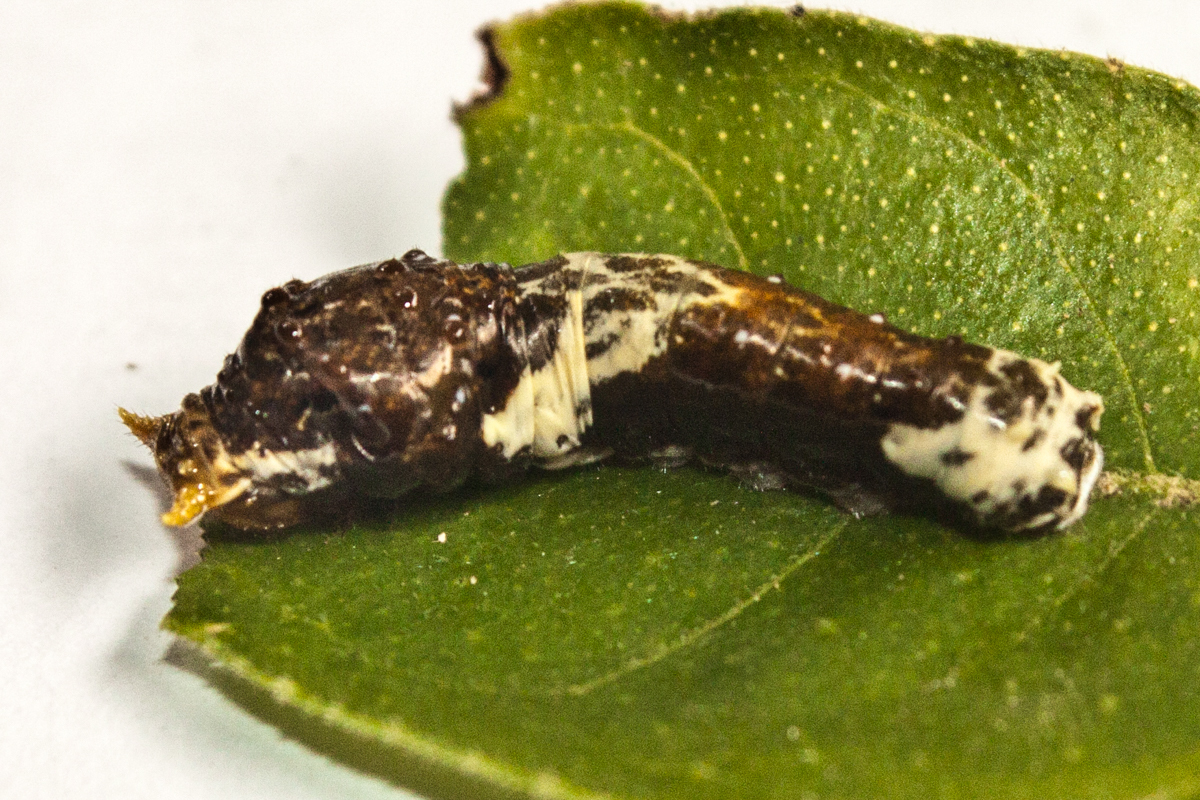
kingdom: Animalia
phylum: Arthropoda
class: Insecta
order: Lepidoptera
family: Papilionidae
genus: Papilio
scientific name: Papilio polytes
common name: Common mormon
